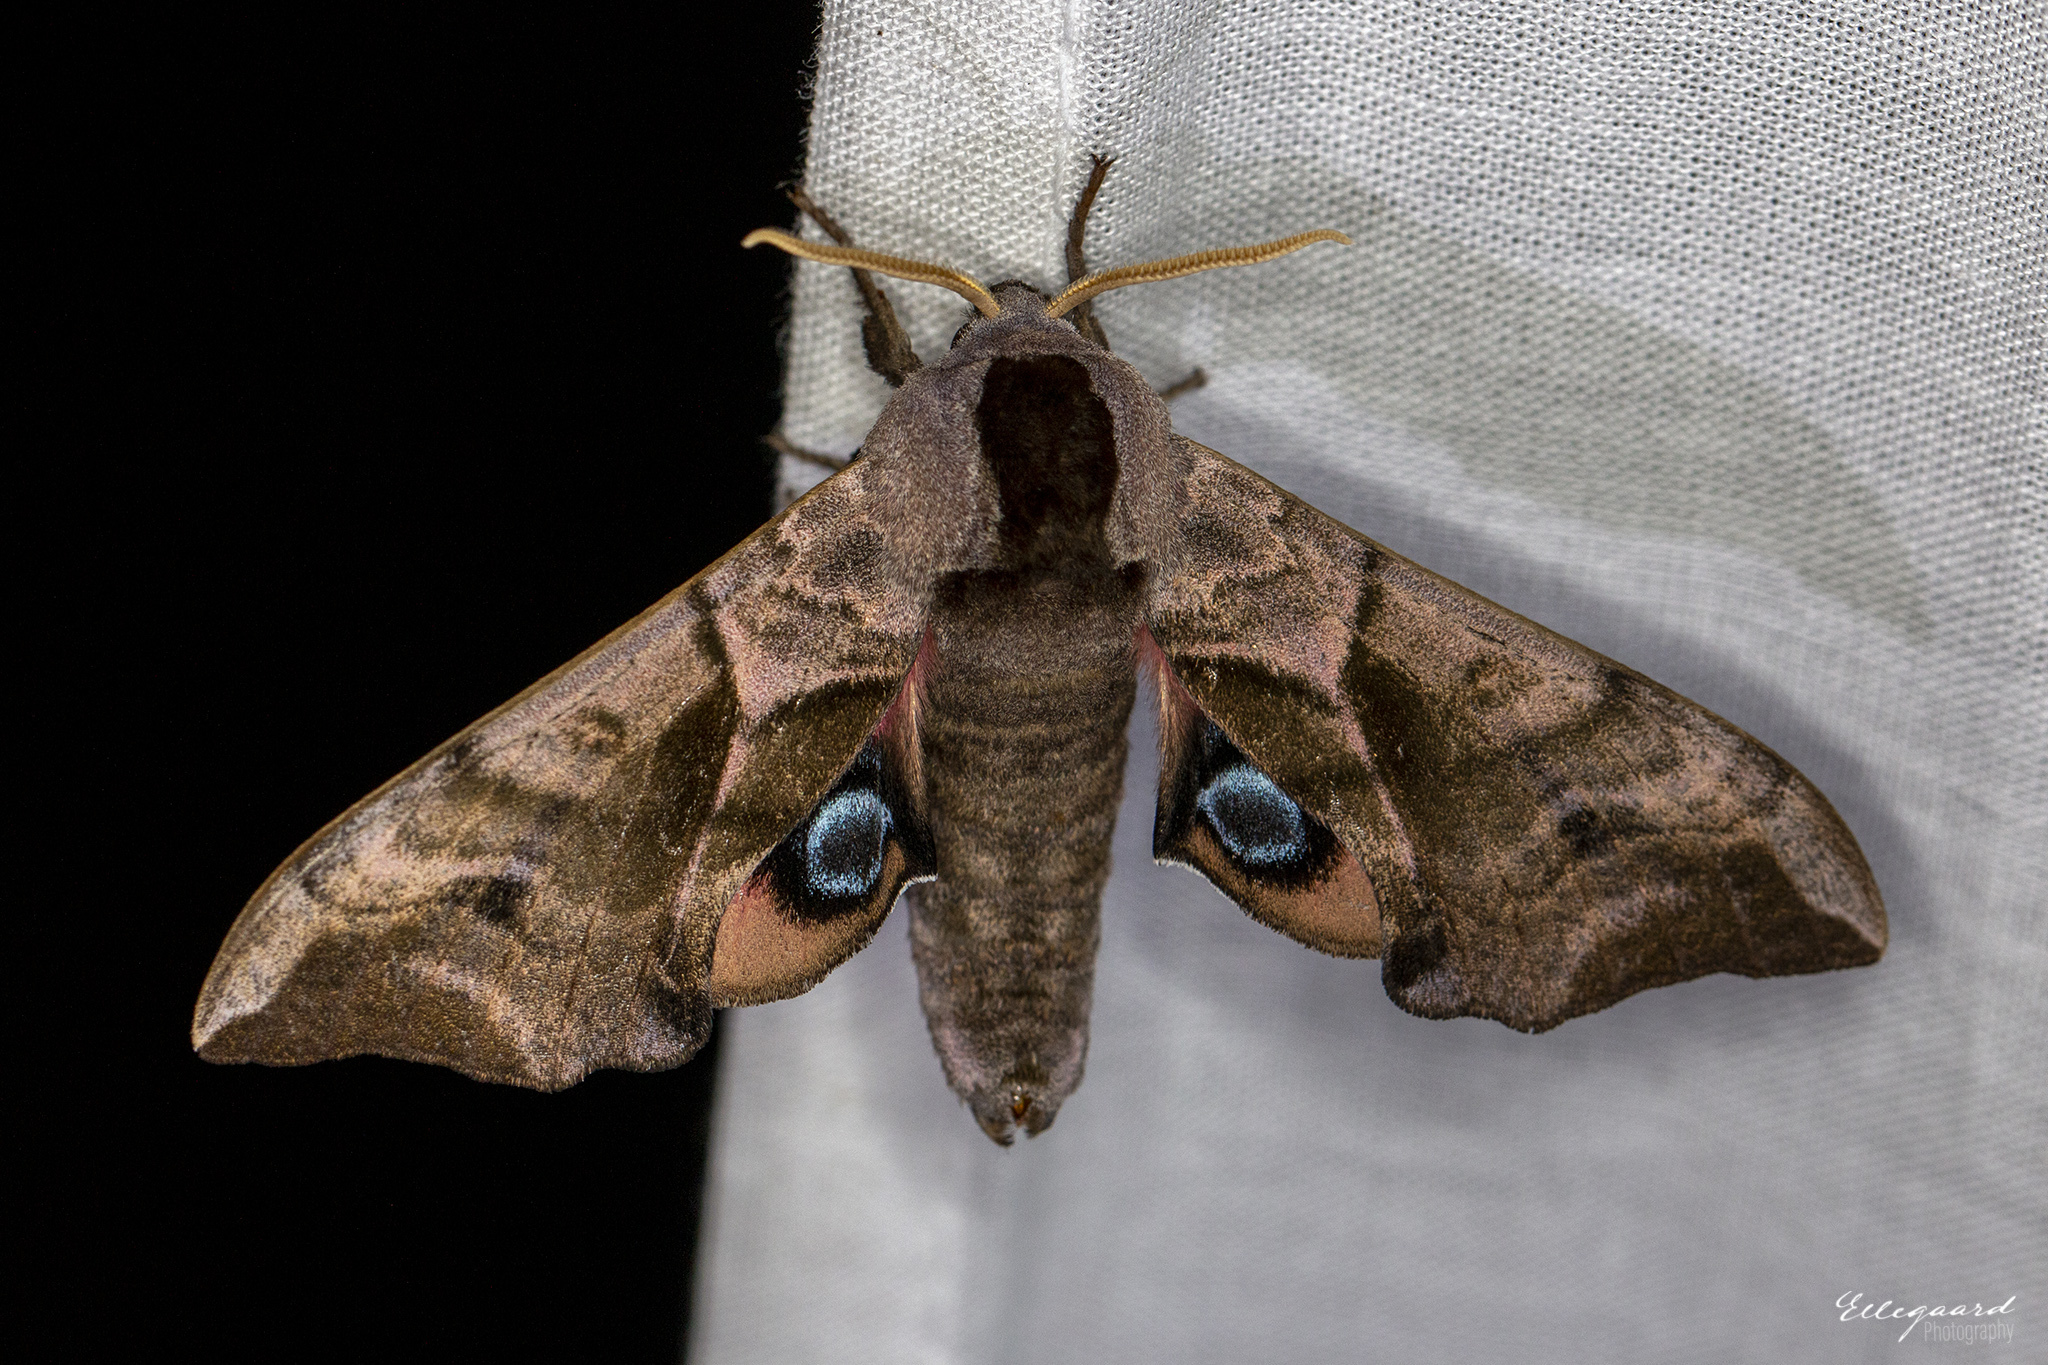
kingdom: Animalia
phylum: Arthropoda
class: Insecta
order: Lepidoptera
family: Sphingidae
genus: Smerinthus
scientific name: Smerinthus ocellata
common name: Eyed hawk-moth
